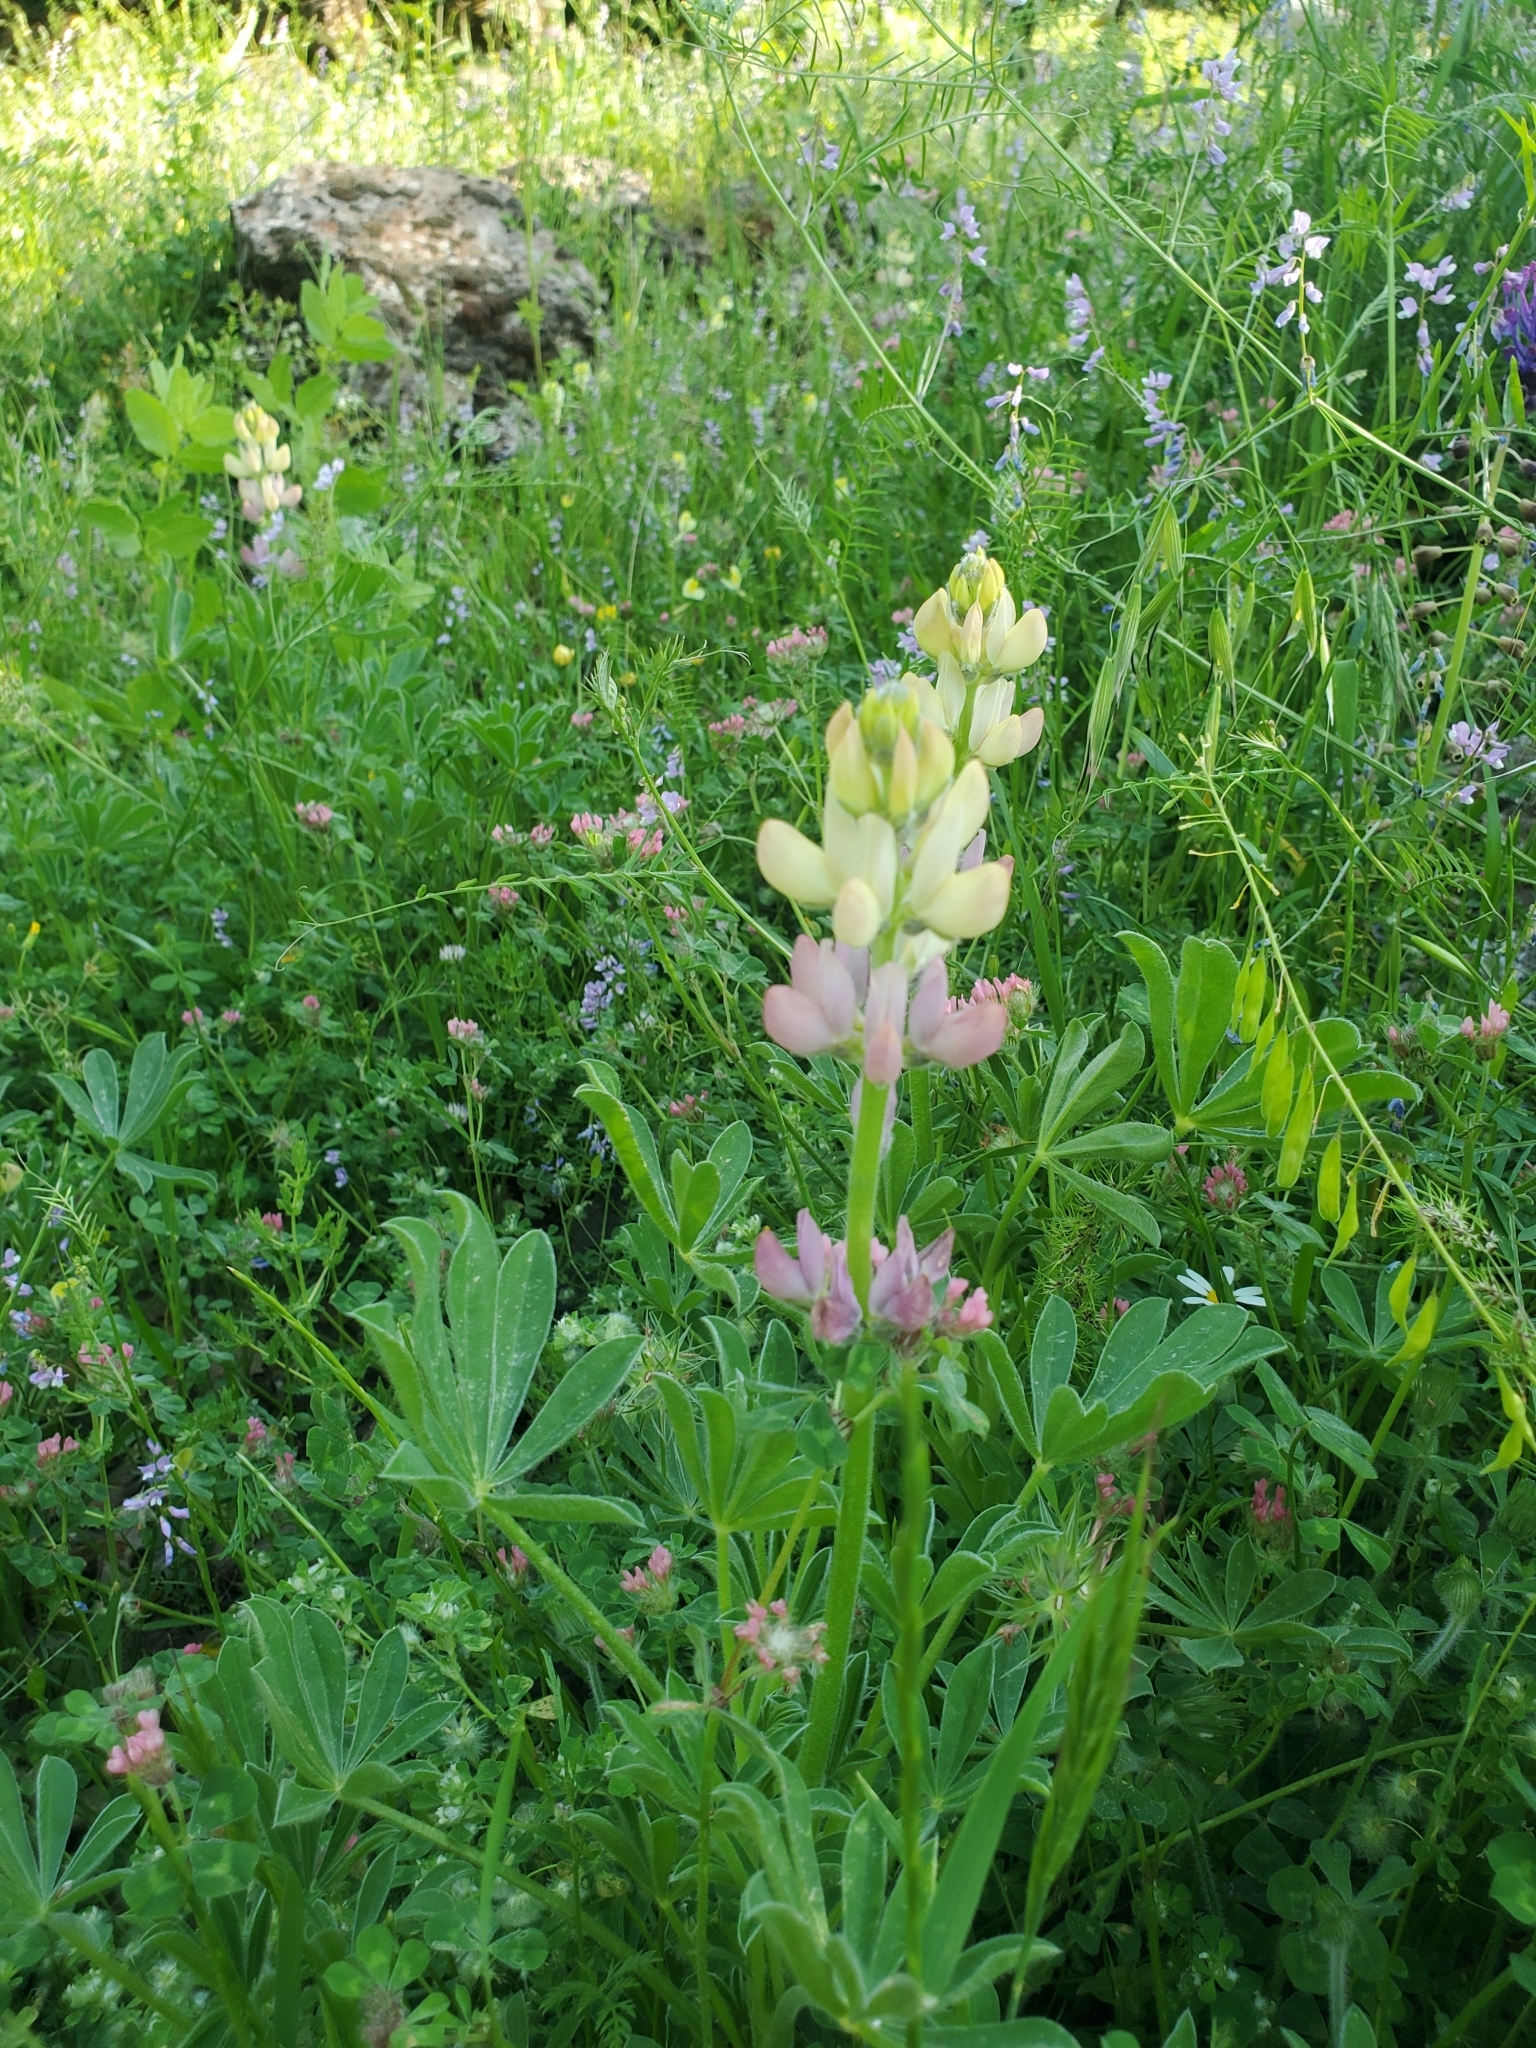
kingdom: Plantae
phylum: Tracheophyta
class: Magnoliopsida
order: Fabales
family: Fabaceae
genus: Lupinus
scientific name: Lupinus gredensis
